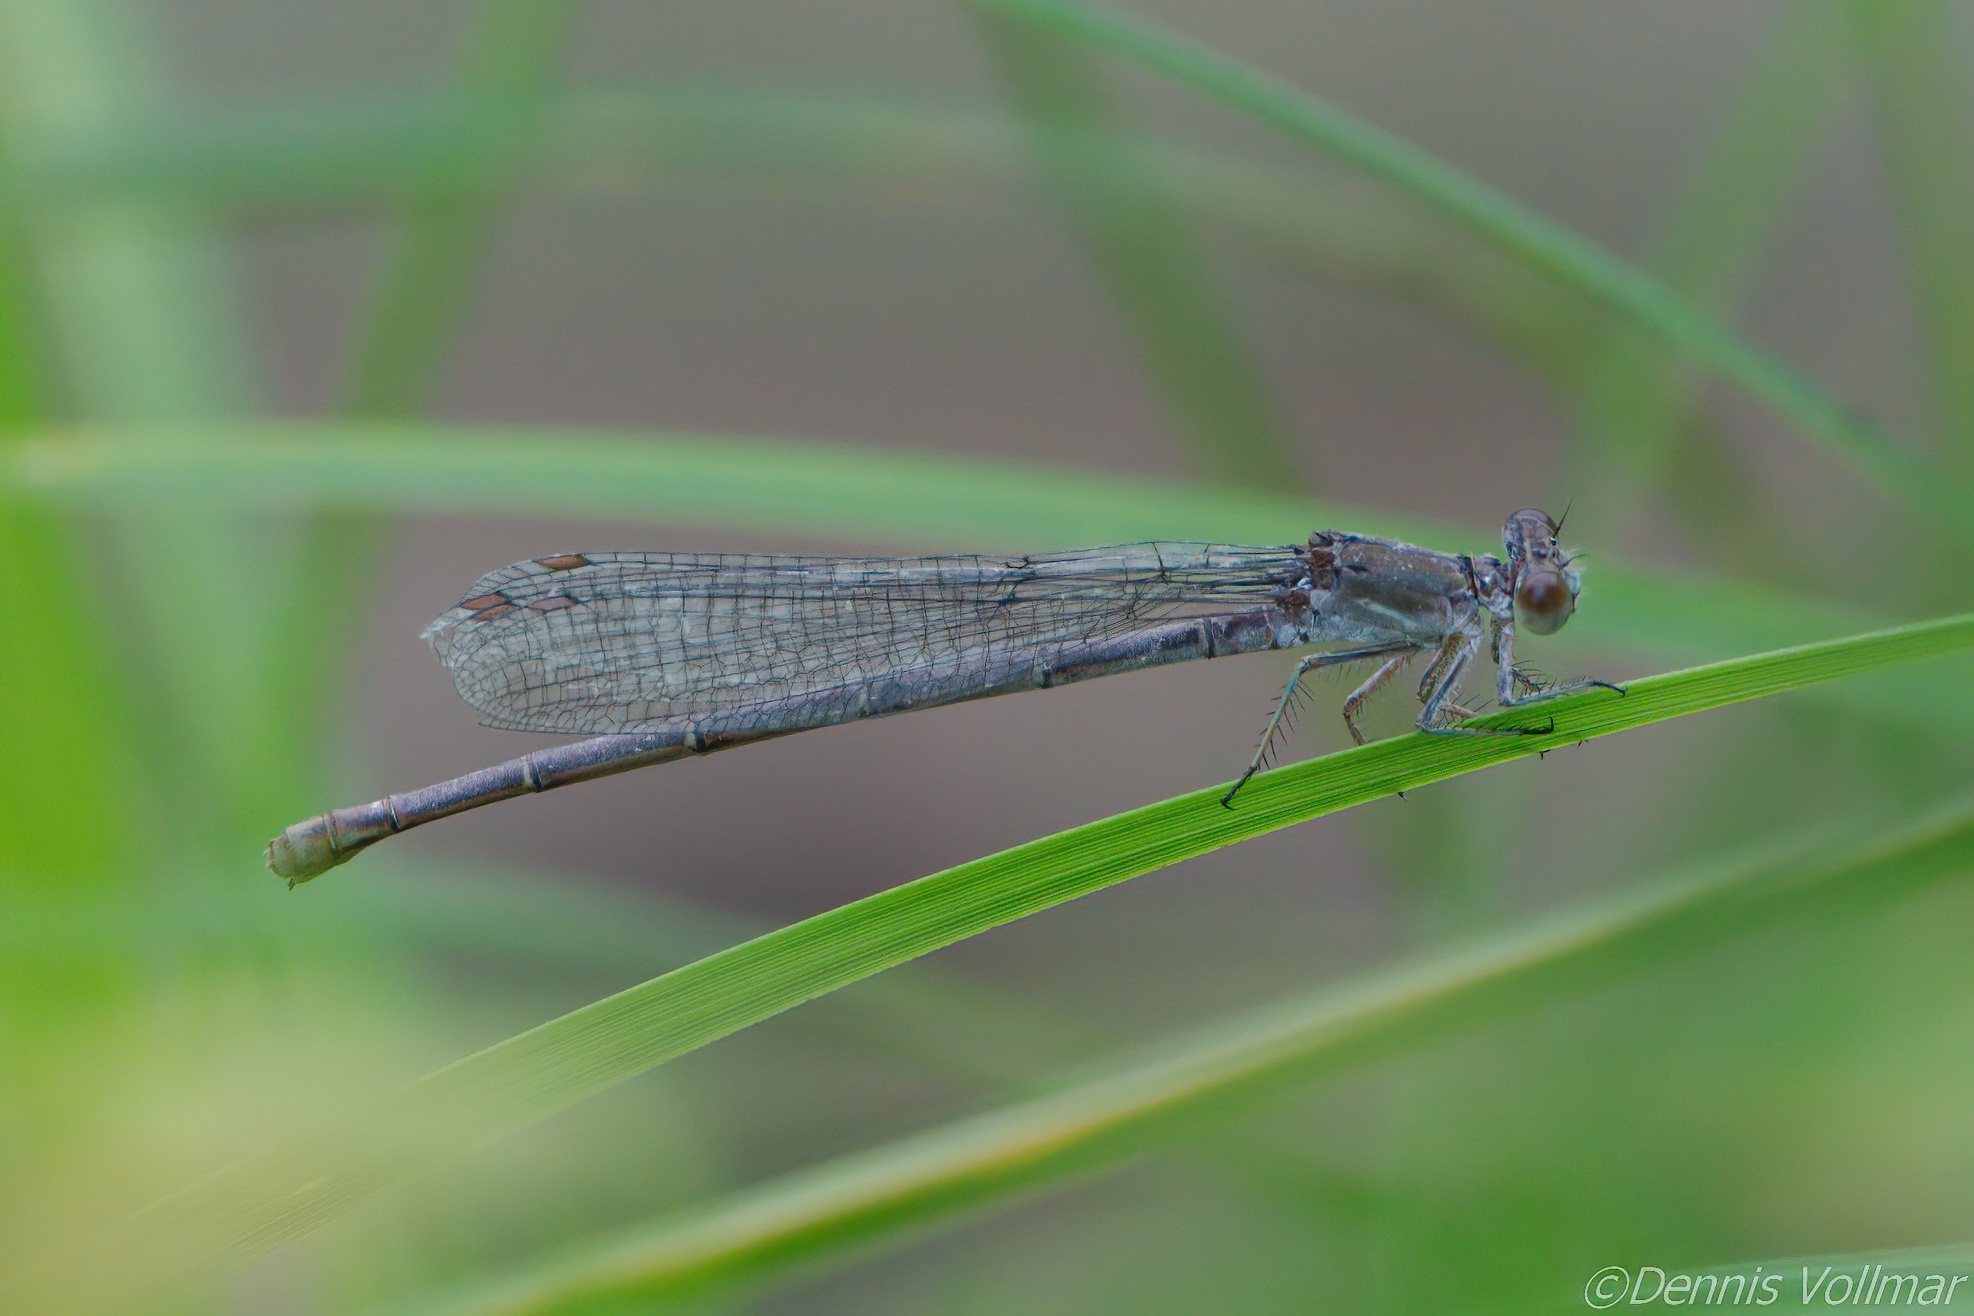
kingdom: Animalia
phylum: Arthropoda
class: Insecta
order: Odonata
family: Coenagrionidae
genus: Argia
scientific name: Argia moesta
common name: Powdered dancer
